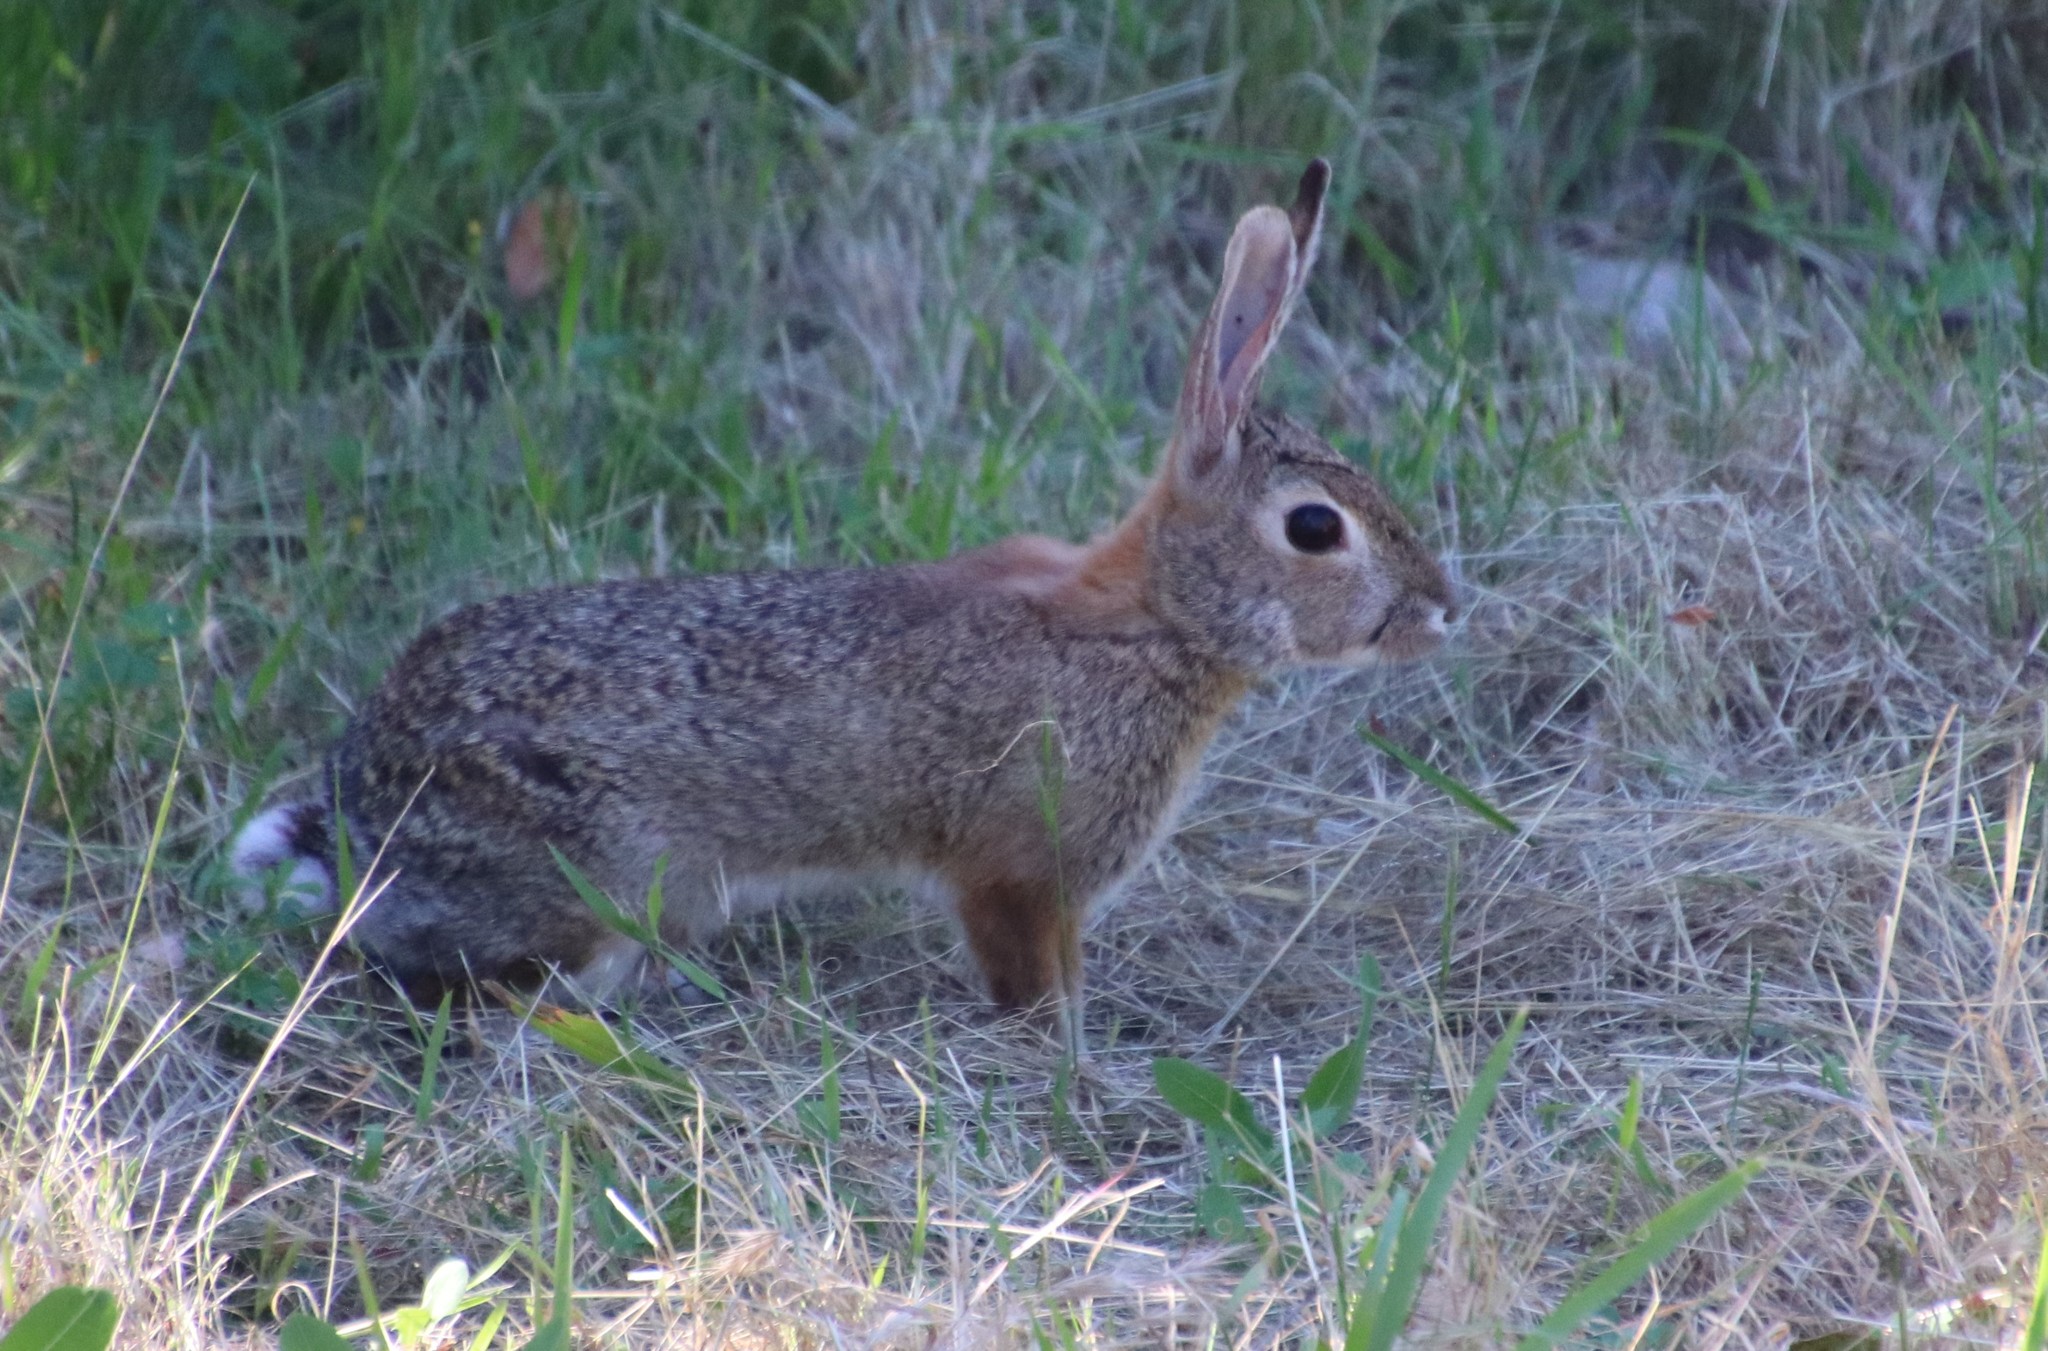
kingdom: Animalia
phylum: Chordata
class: Mammalia
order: Lagomorpha
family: Leporidae
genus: Sylvilagus
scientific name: Sylvilagus audubonii
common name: Desert cottontail
